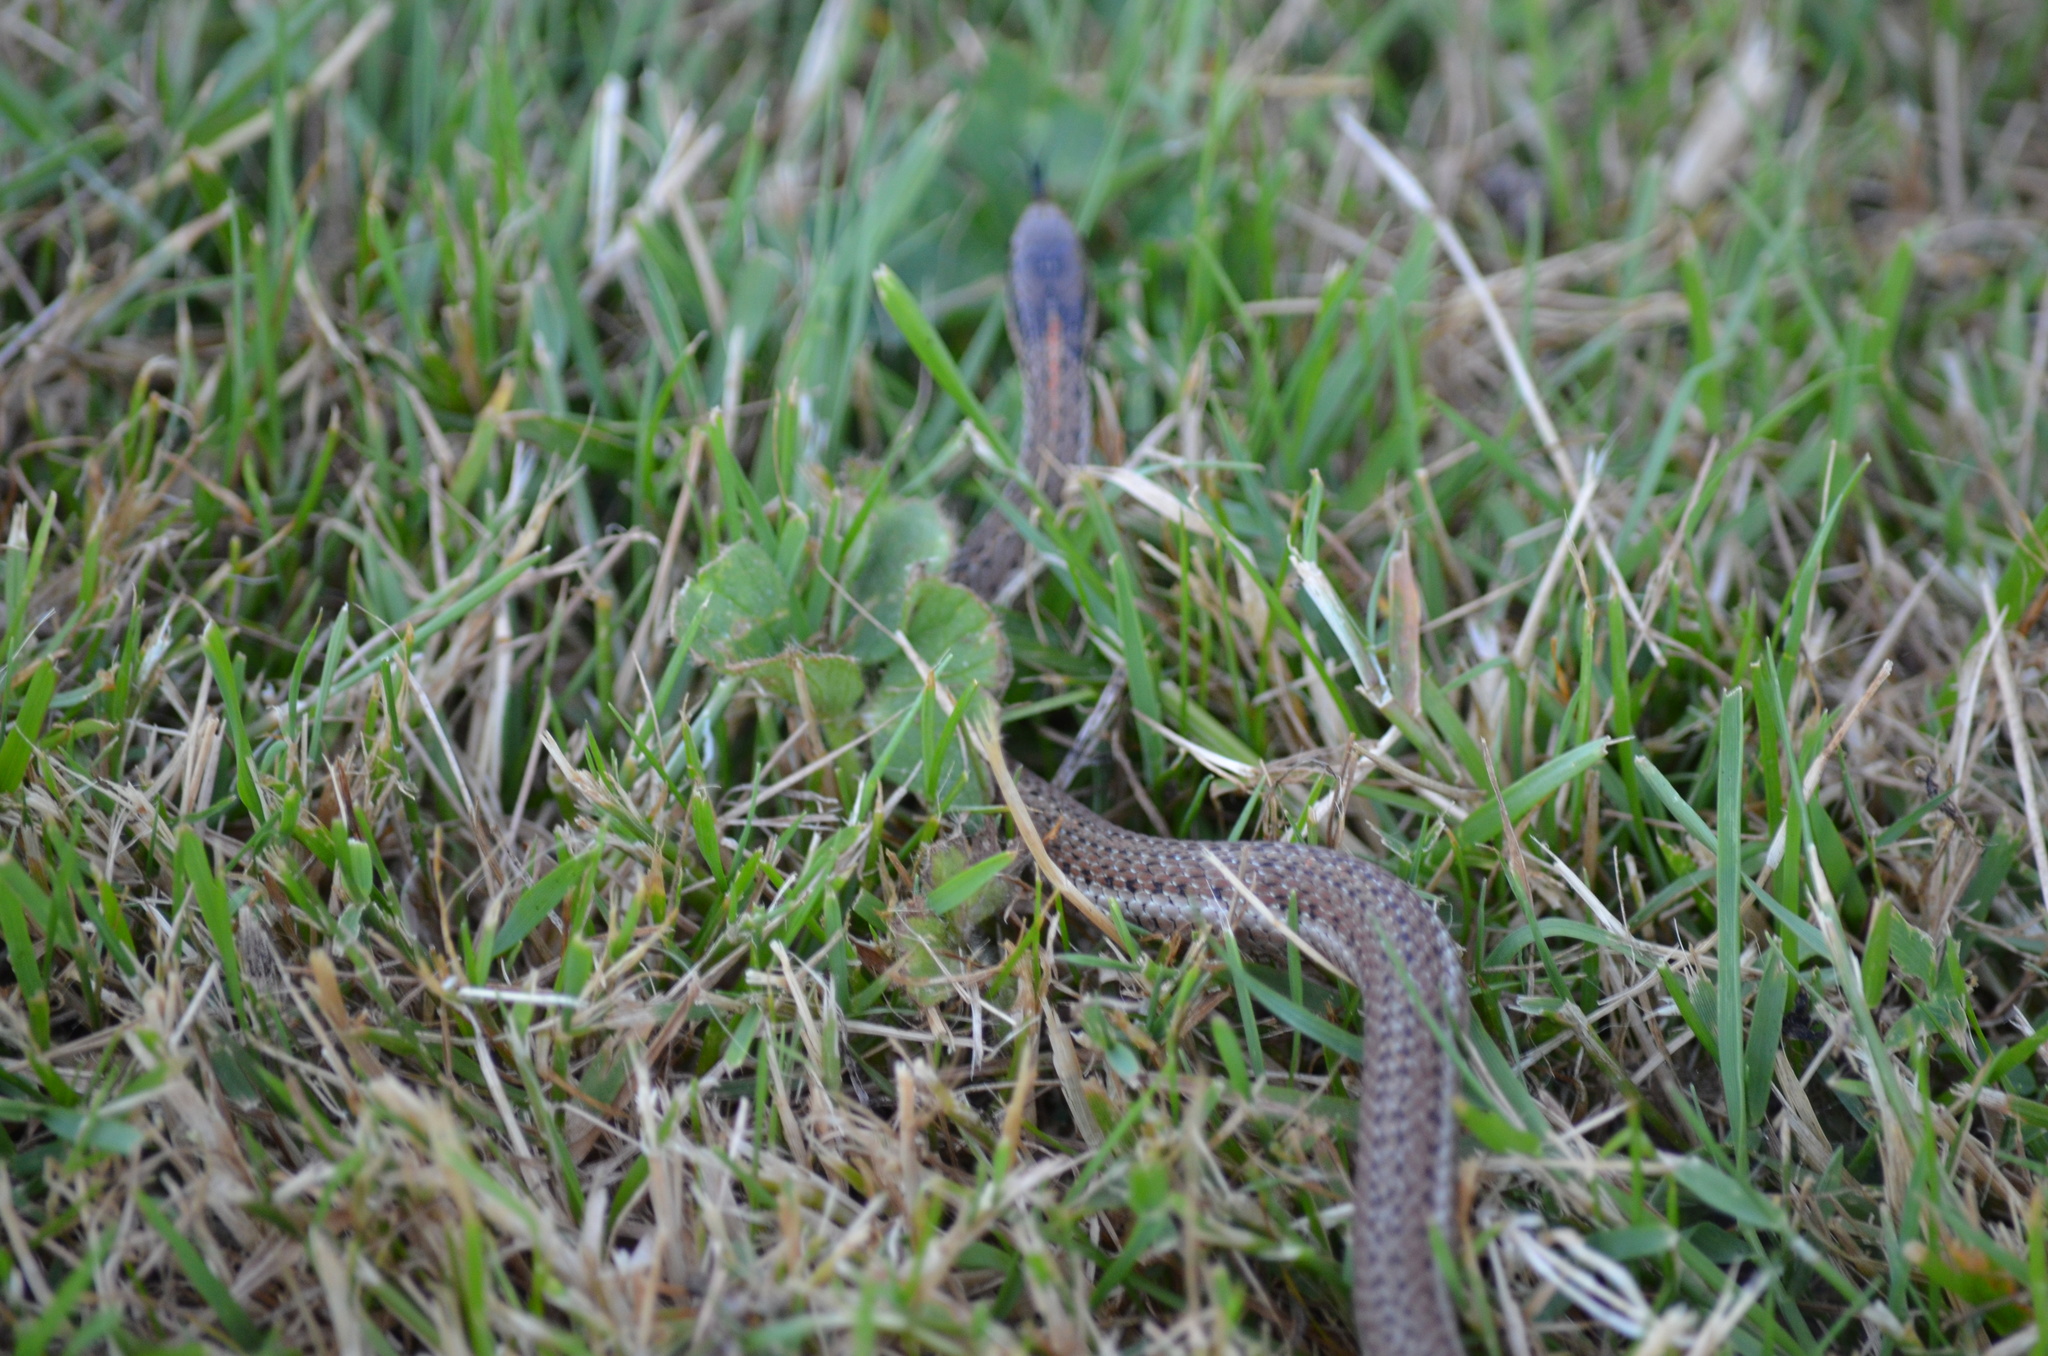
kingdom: Animalia
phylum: Chordata
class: Squamata
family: Colubridae
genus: Thamnophis
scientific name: Thamnophis ordinoides
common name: Northwestern garter snake
